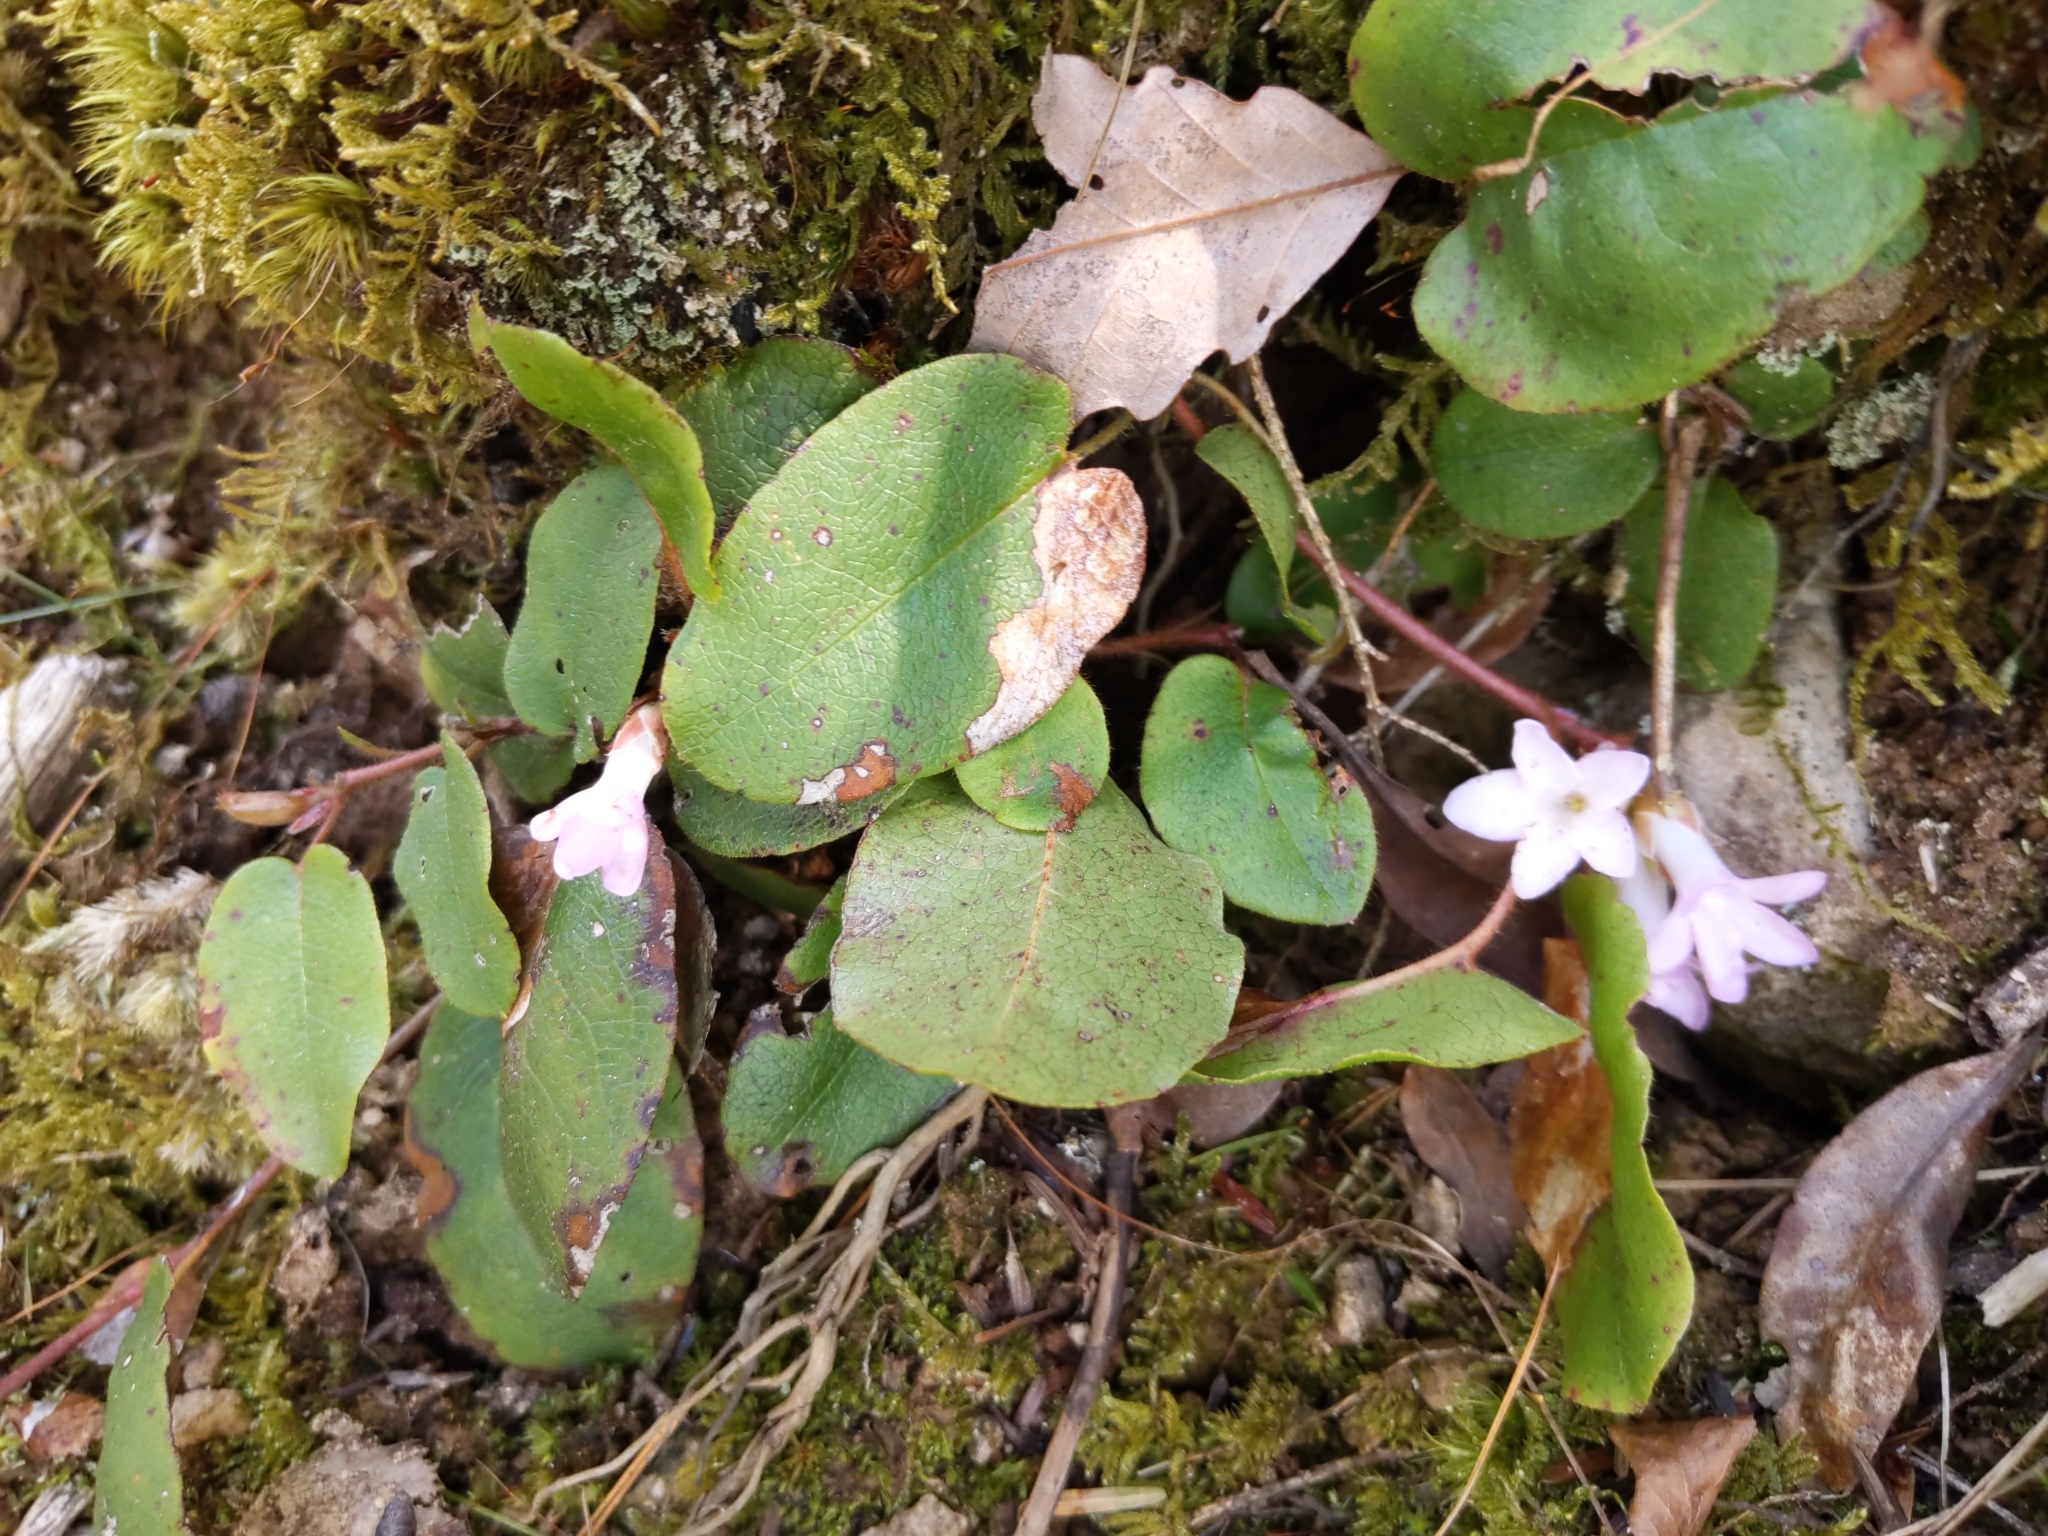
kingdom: Plantae
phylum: Tracheophyta
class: Magnoliopsida
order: Ericales
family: Ericaceae
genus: Epigaea
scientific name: Epigaea repens
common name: Gravelroot
